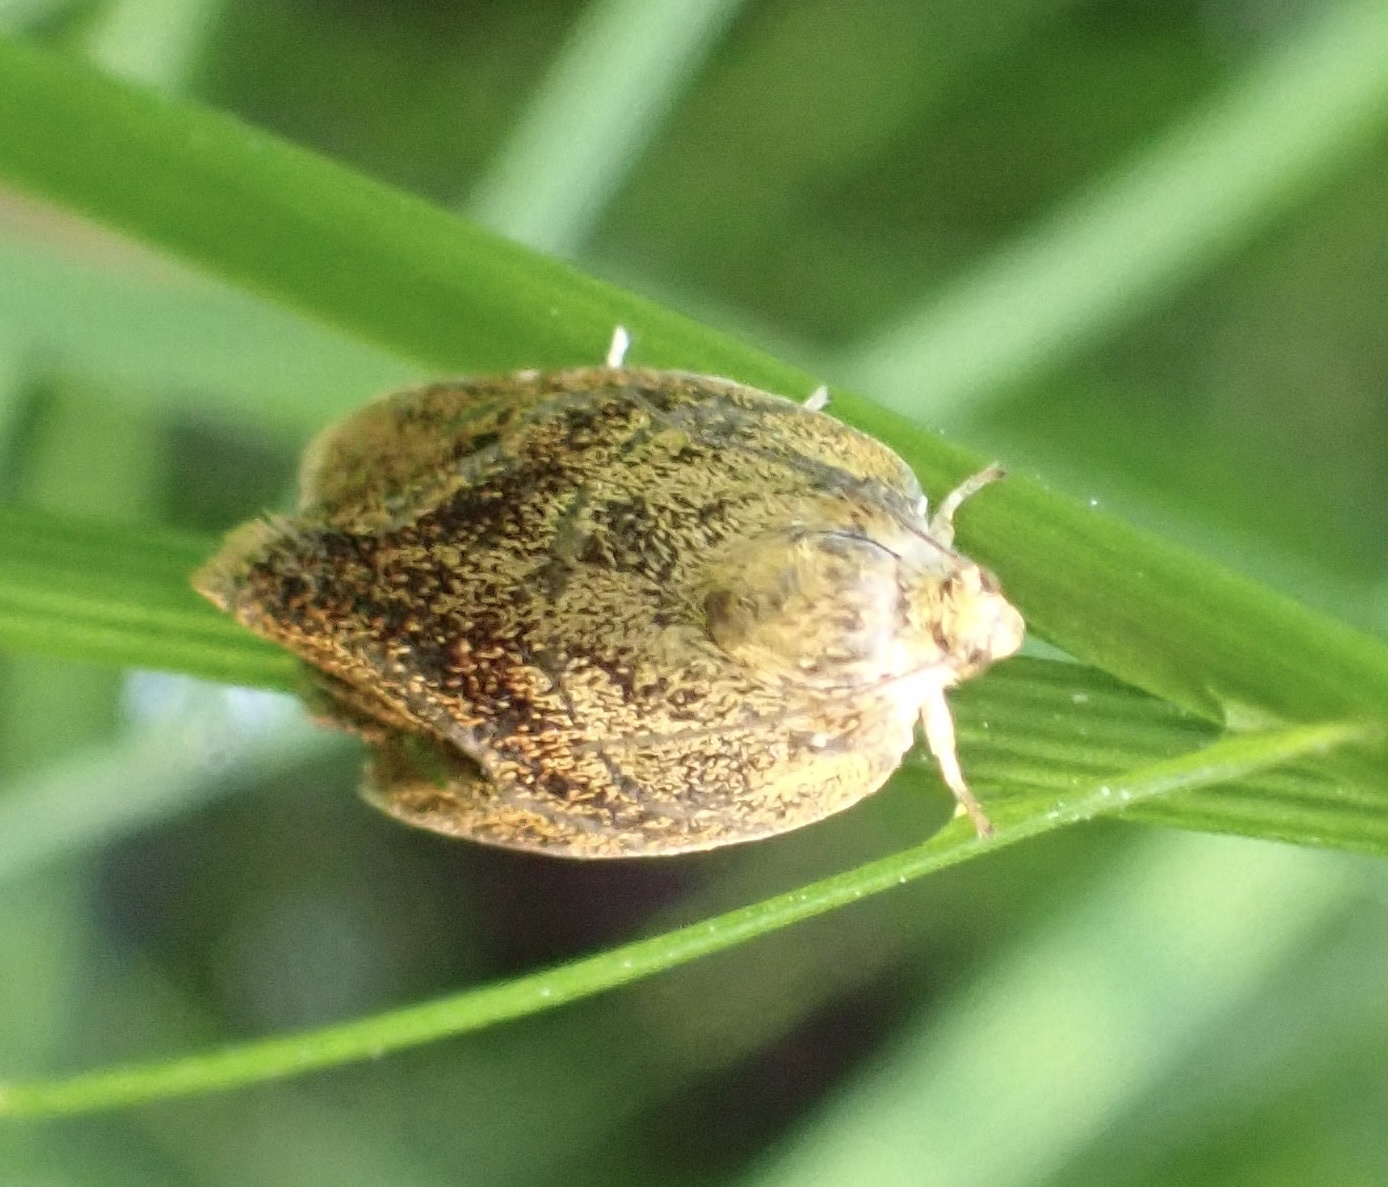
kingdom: Animalia
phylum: Arthropoda
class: Insecta
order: Lepidoptera
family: Tortricidae
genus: Ptycholoma
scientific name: Ptycholoma lecheana
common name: Leches twist moth
